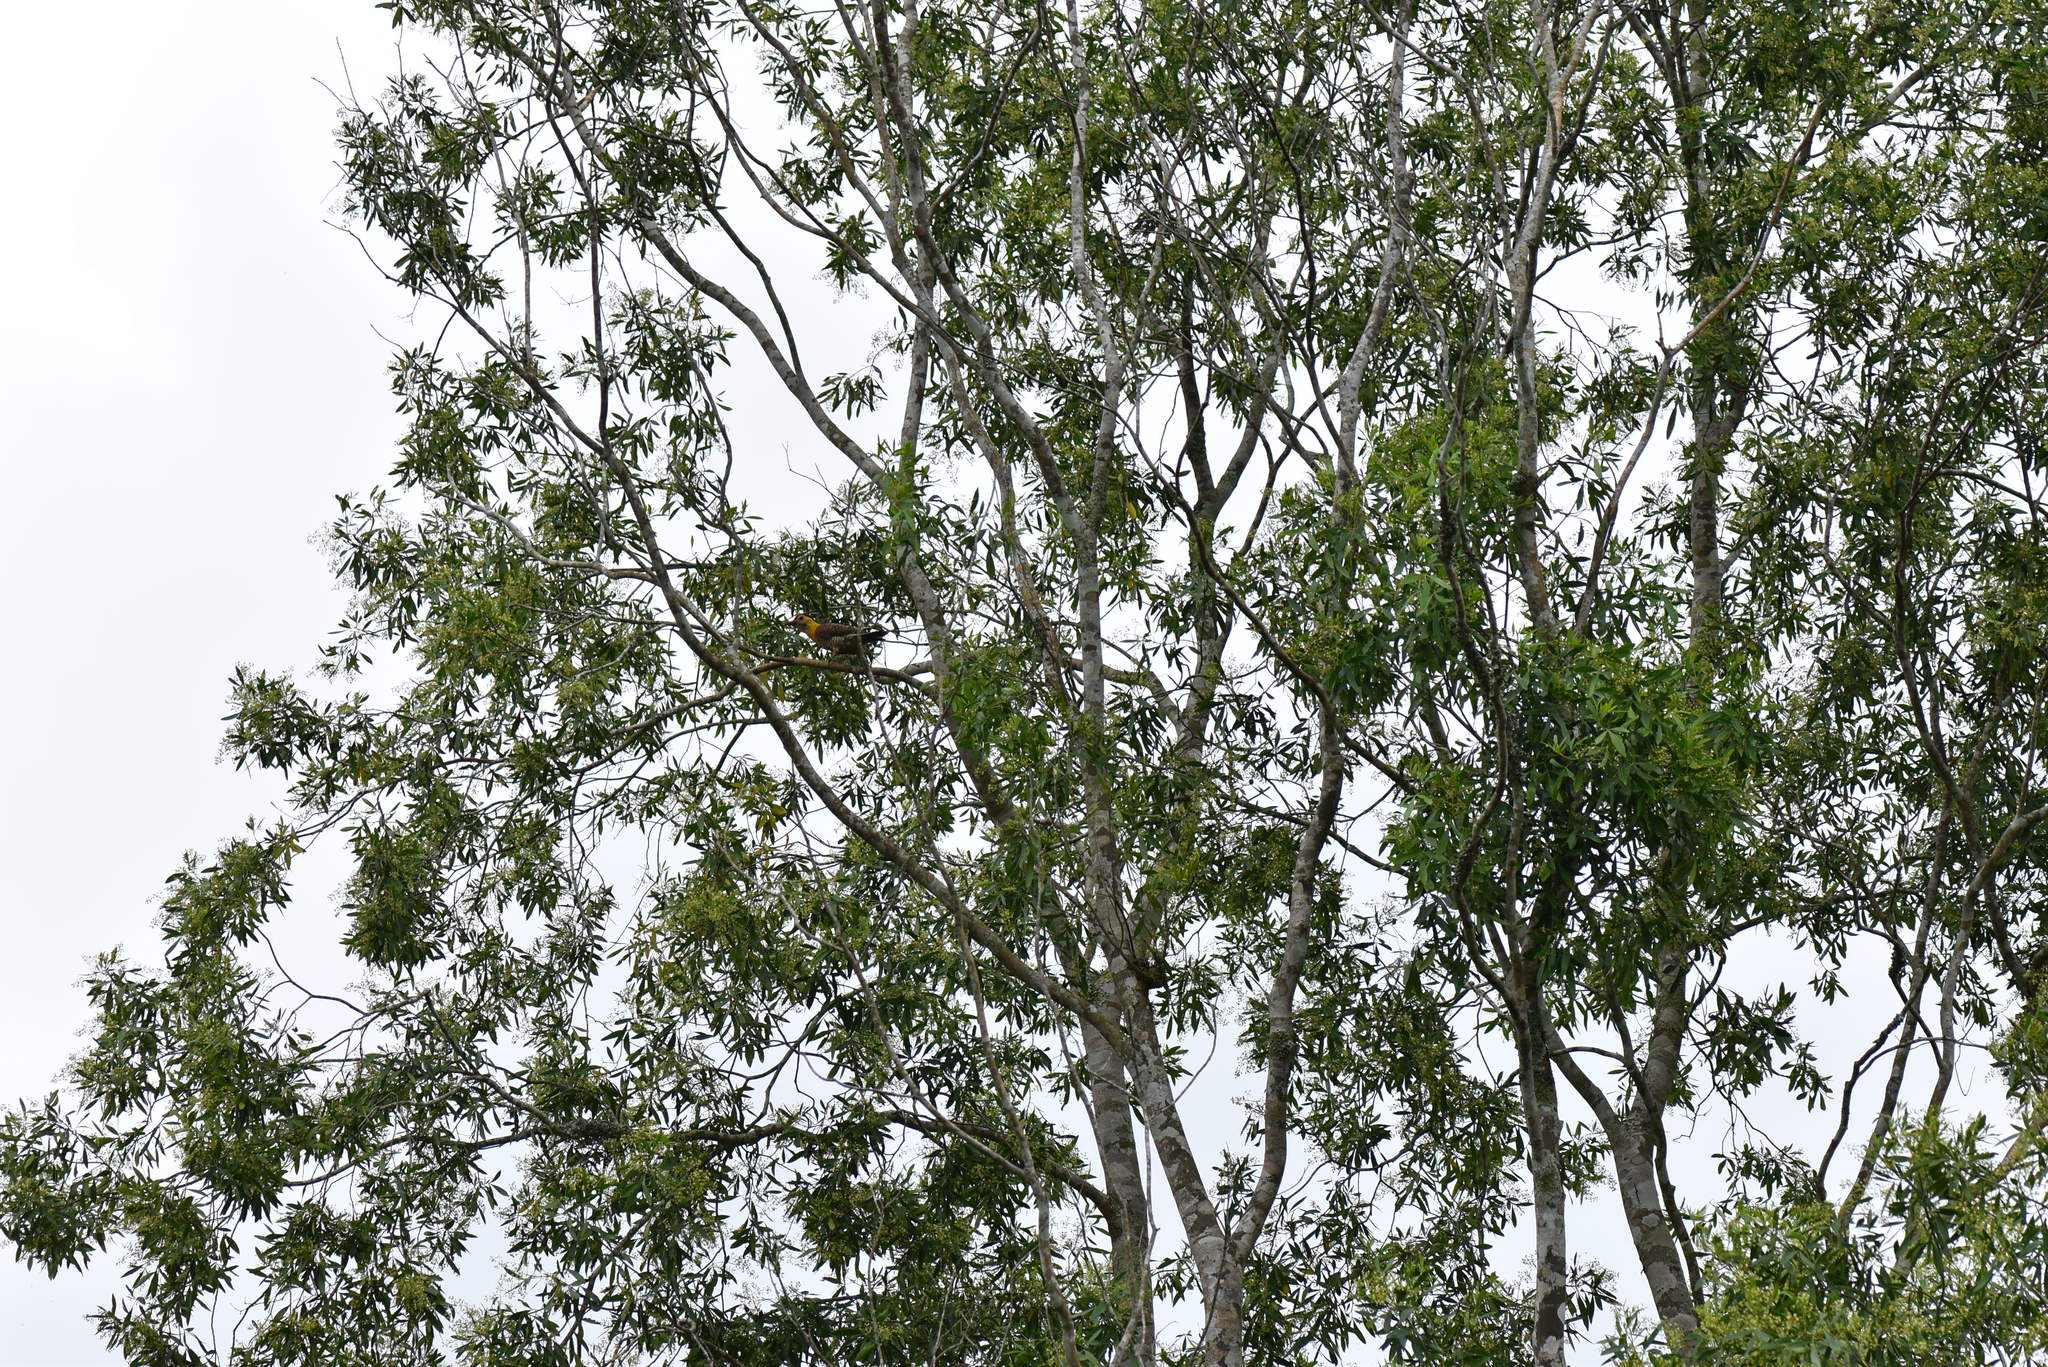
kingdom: Animalia
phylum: Chordata
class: Aves
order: Piciformes
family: Picidae
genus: Colaptes
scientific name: Colaptes campestris
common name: Campo flicker
